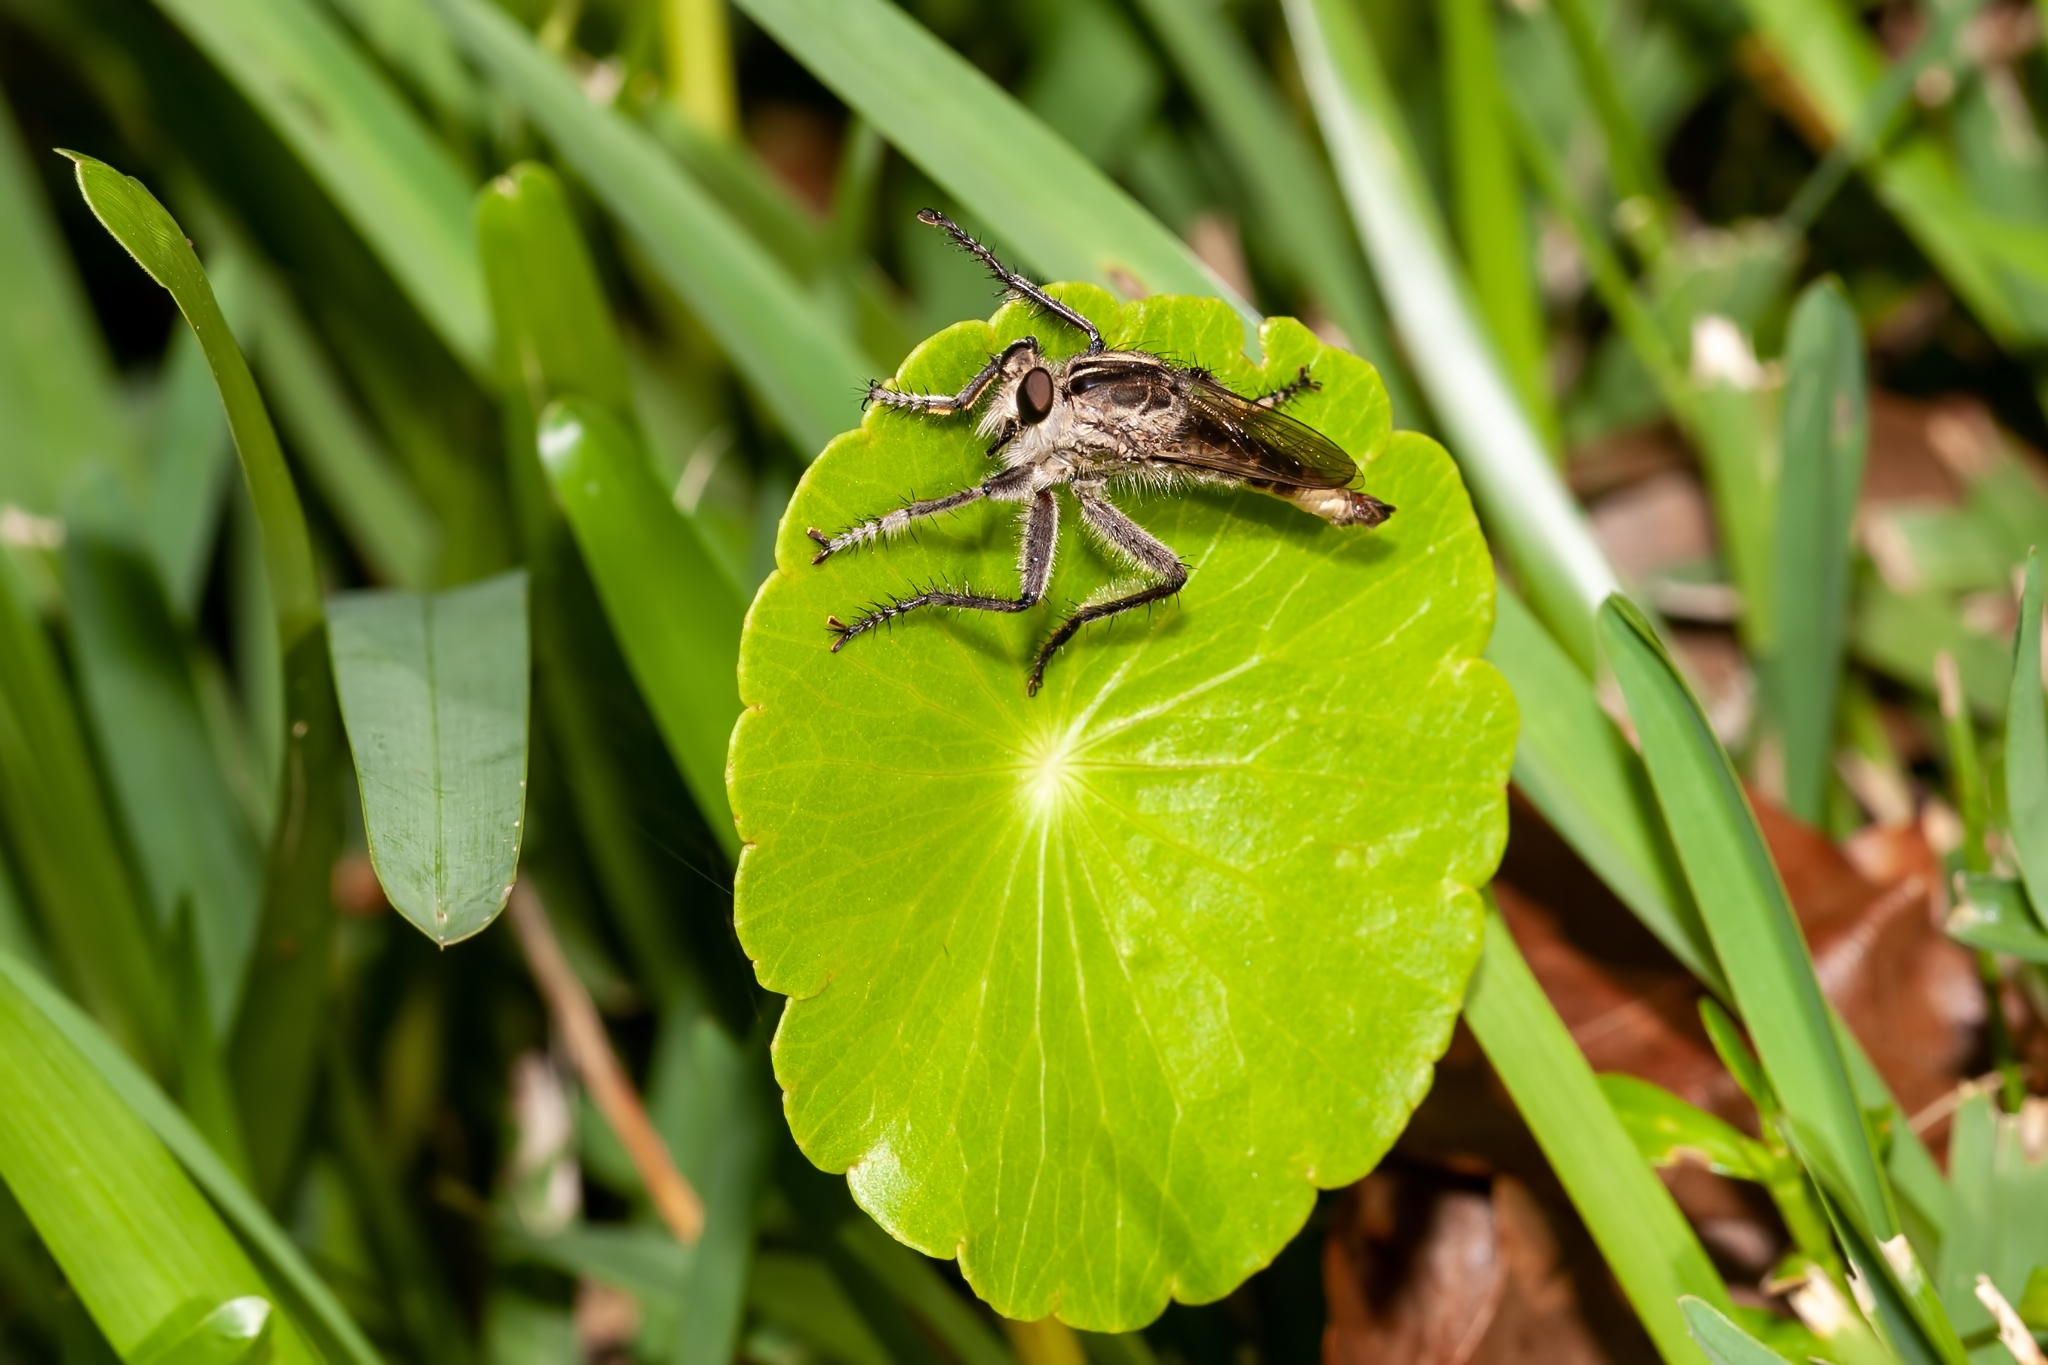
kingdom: Animalia
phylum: Arthropoda
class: Insecta
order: Diptera
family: Asilidae
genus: Triorla
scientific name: Triorla interrupta
